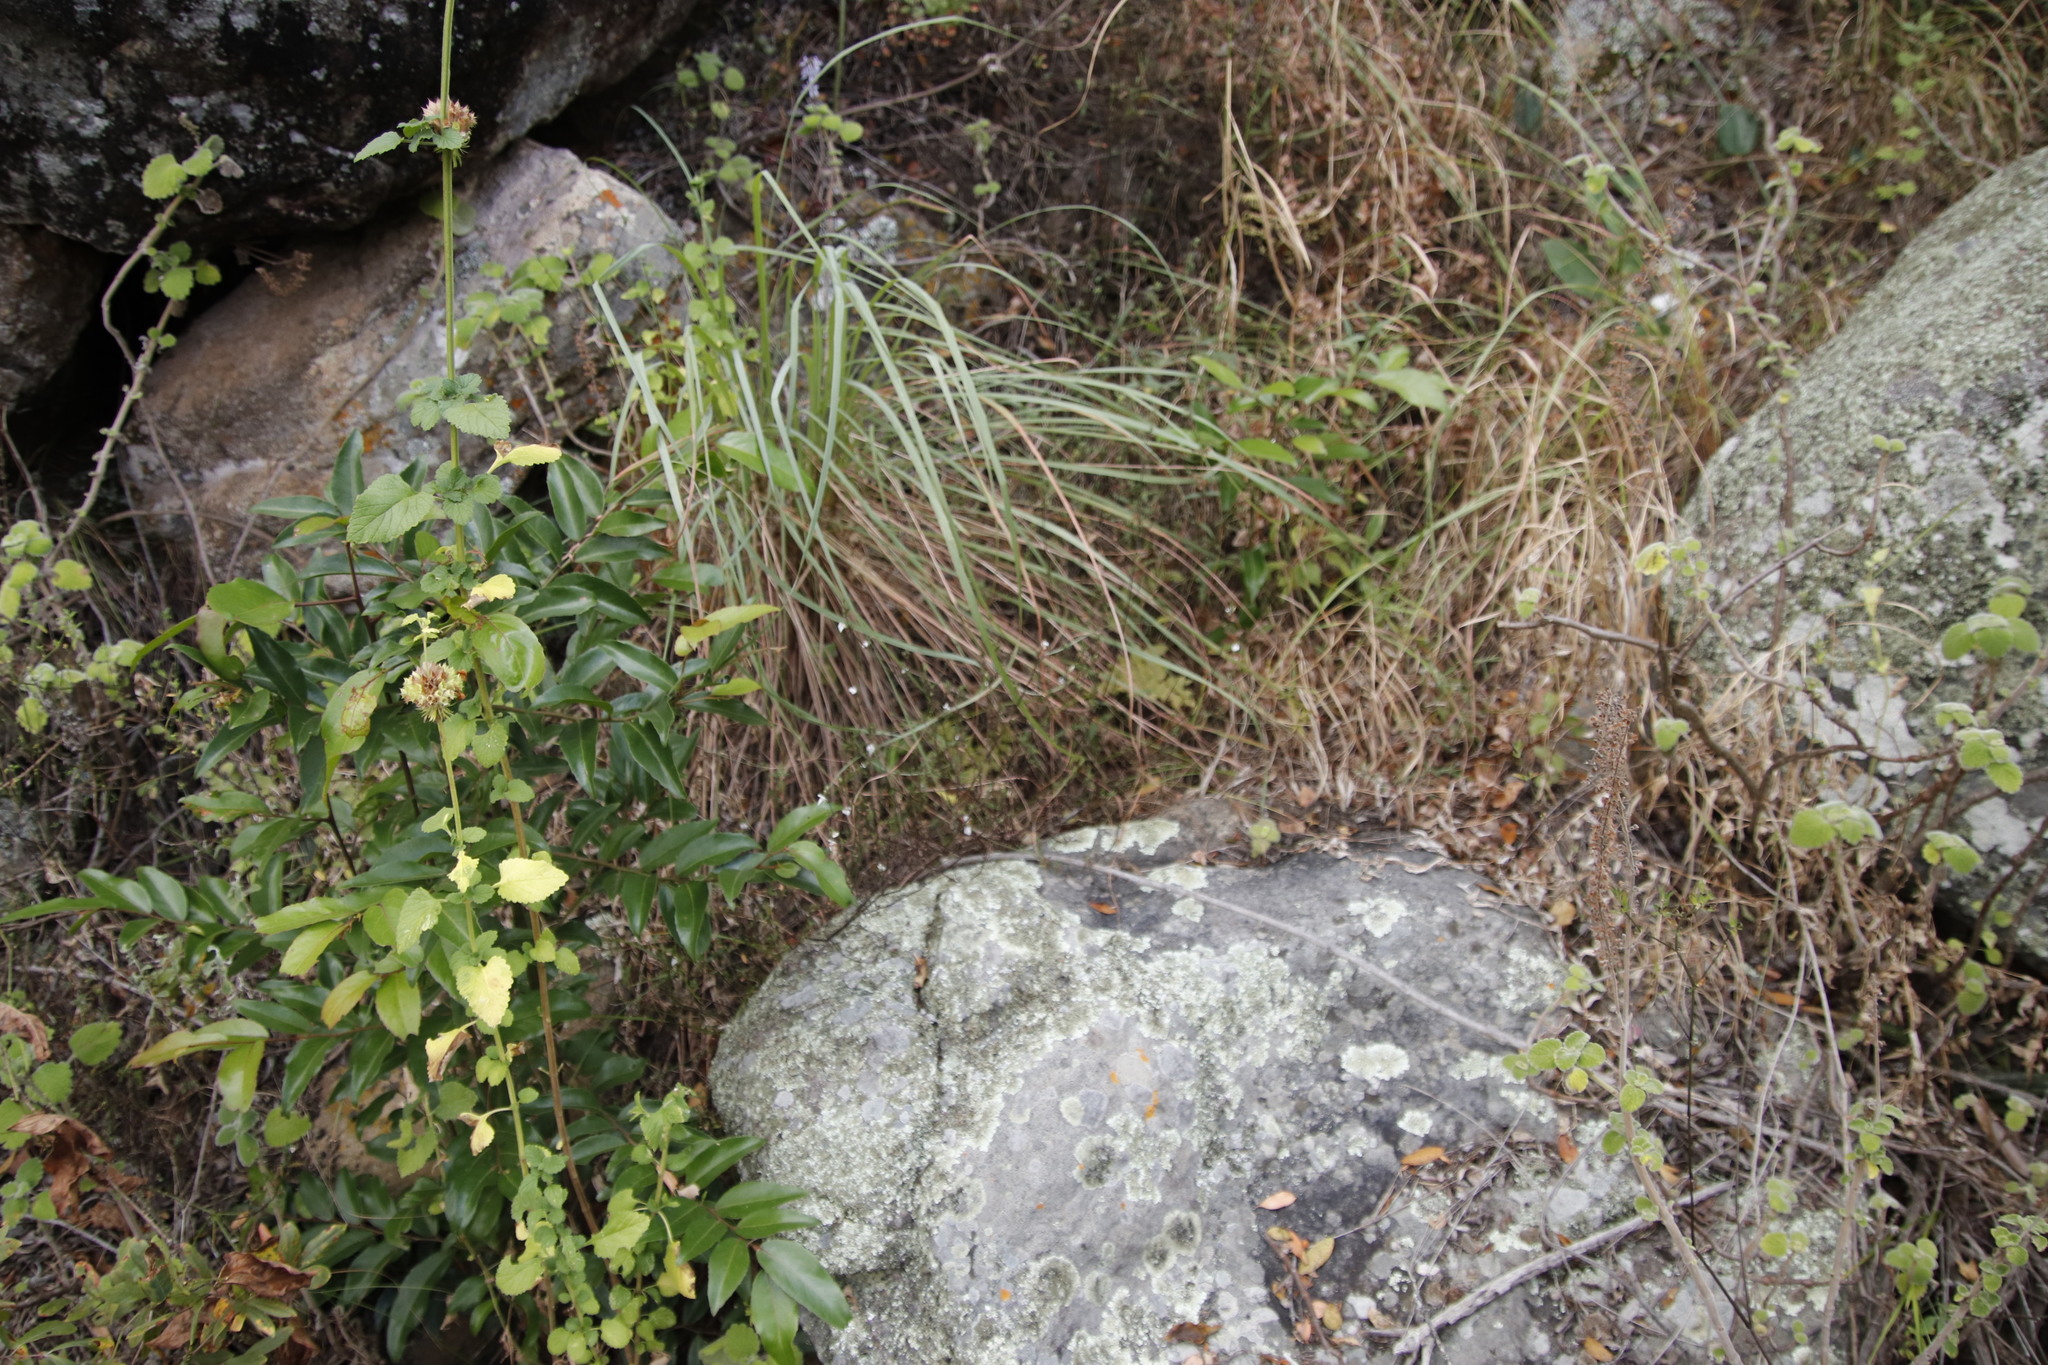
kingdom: Plantae
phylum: Tracheophyta
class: Magnoliopsida
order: Lamiales
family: Acanthaceae
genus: Justicia
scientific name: Justicia protracta
